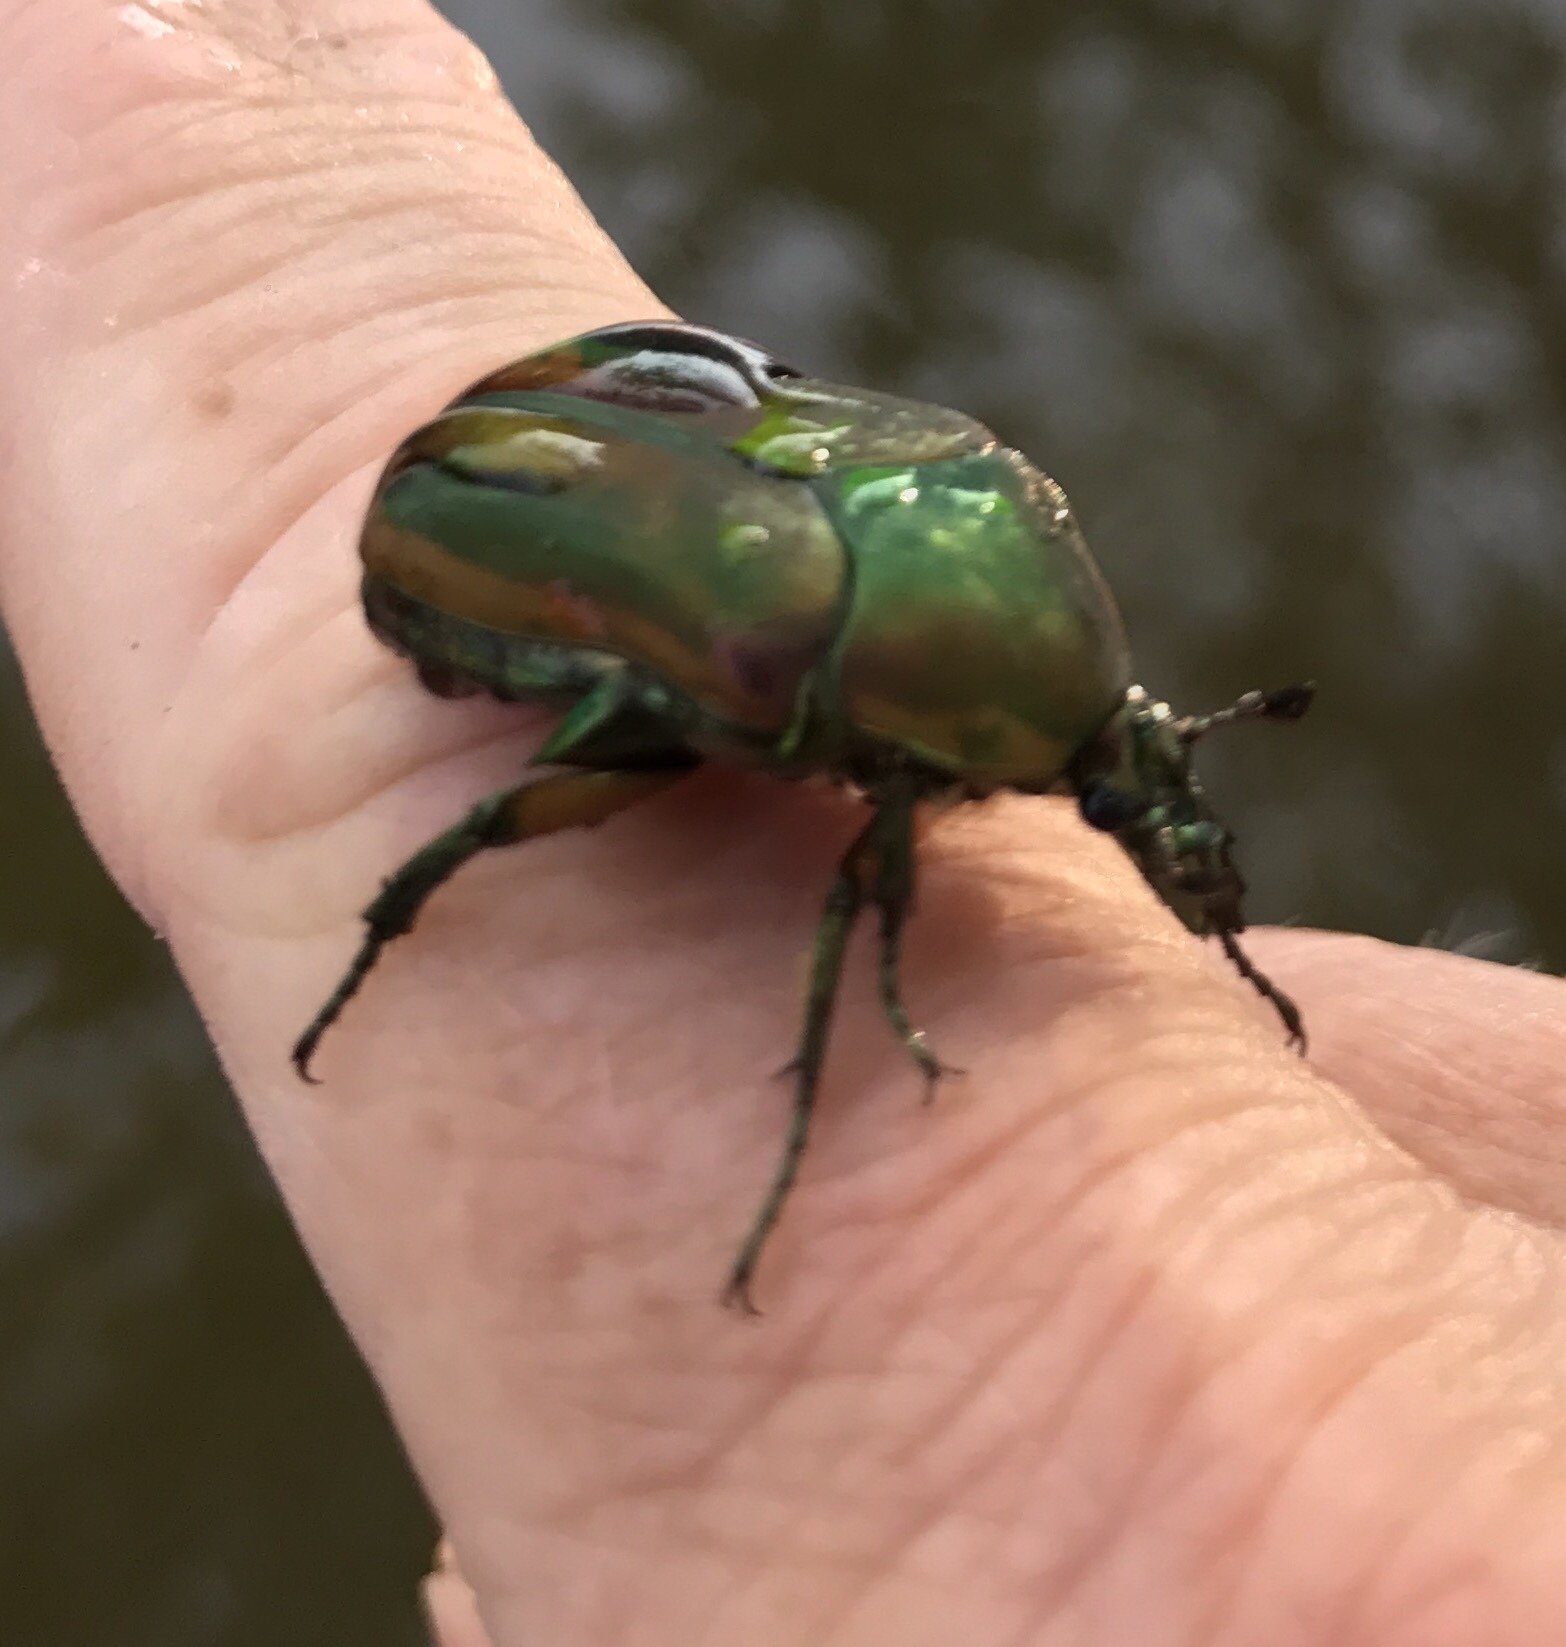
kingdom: Animalia
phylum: Arthropoda
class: Insecta
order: Coleoptera
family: Scarabaeidae
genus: Cotinis
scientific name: Cotinis nitida
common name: Common green june beetle
